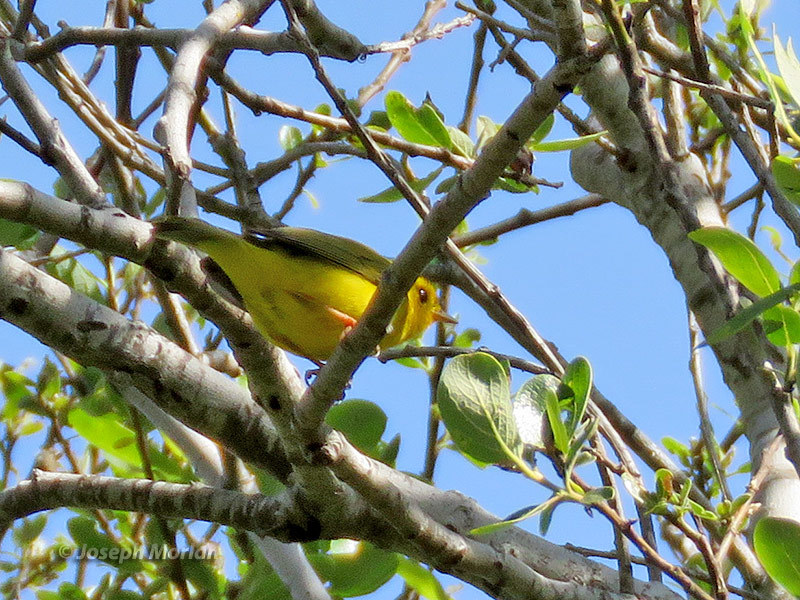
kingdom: Animalia
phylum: Chordata
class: Aves
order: Passeriformes
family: Parulidae
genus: Cardellina
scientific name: Cardellina pusilla
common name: Wilson's warbler
